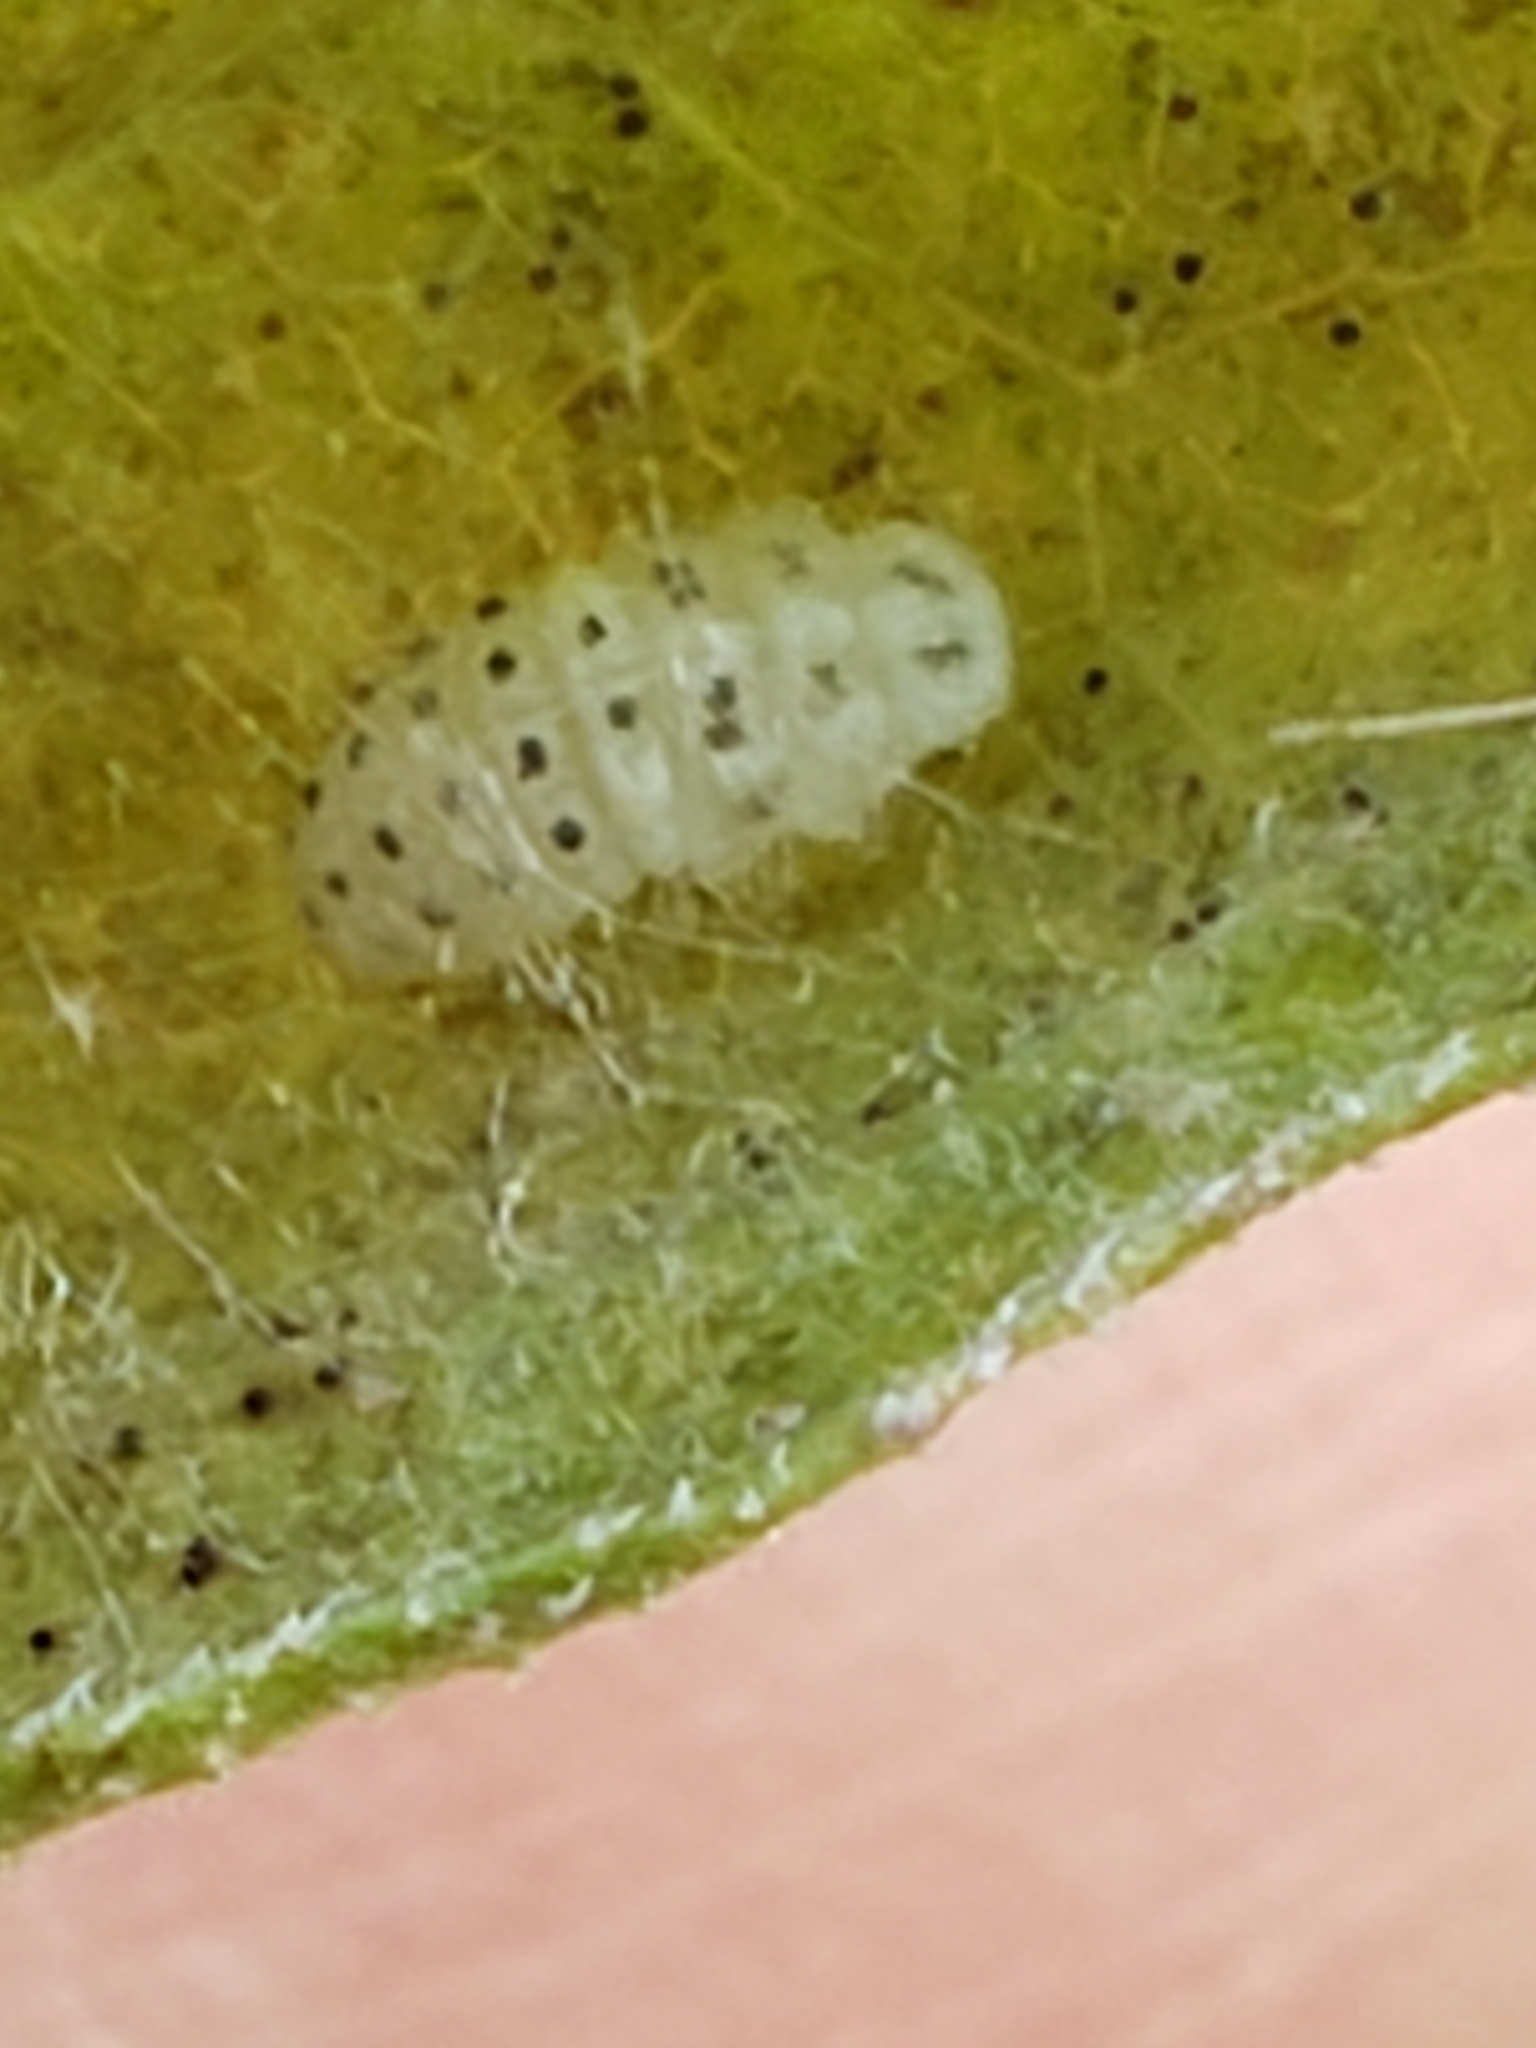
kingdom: Animalia
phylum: Arthropoda
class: Insecta
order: Coleoptera
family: Coccinellidae
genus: Psyllobora
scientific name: Psyllobora vigintimaculata
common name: Ladybird beetle
